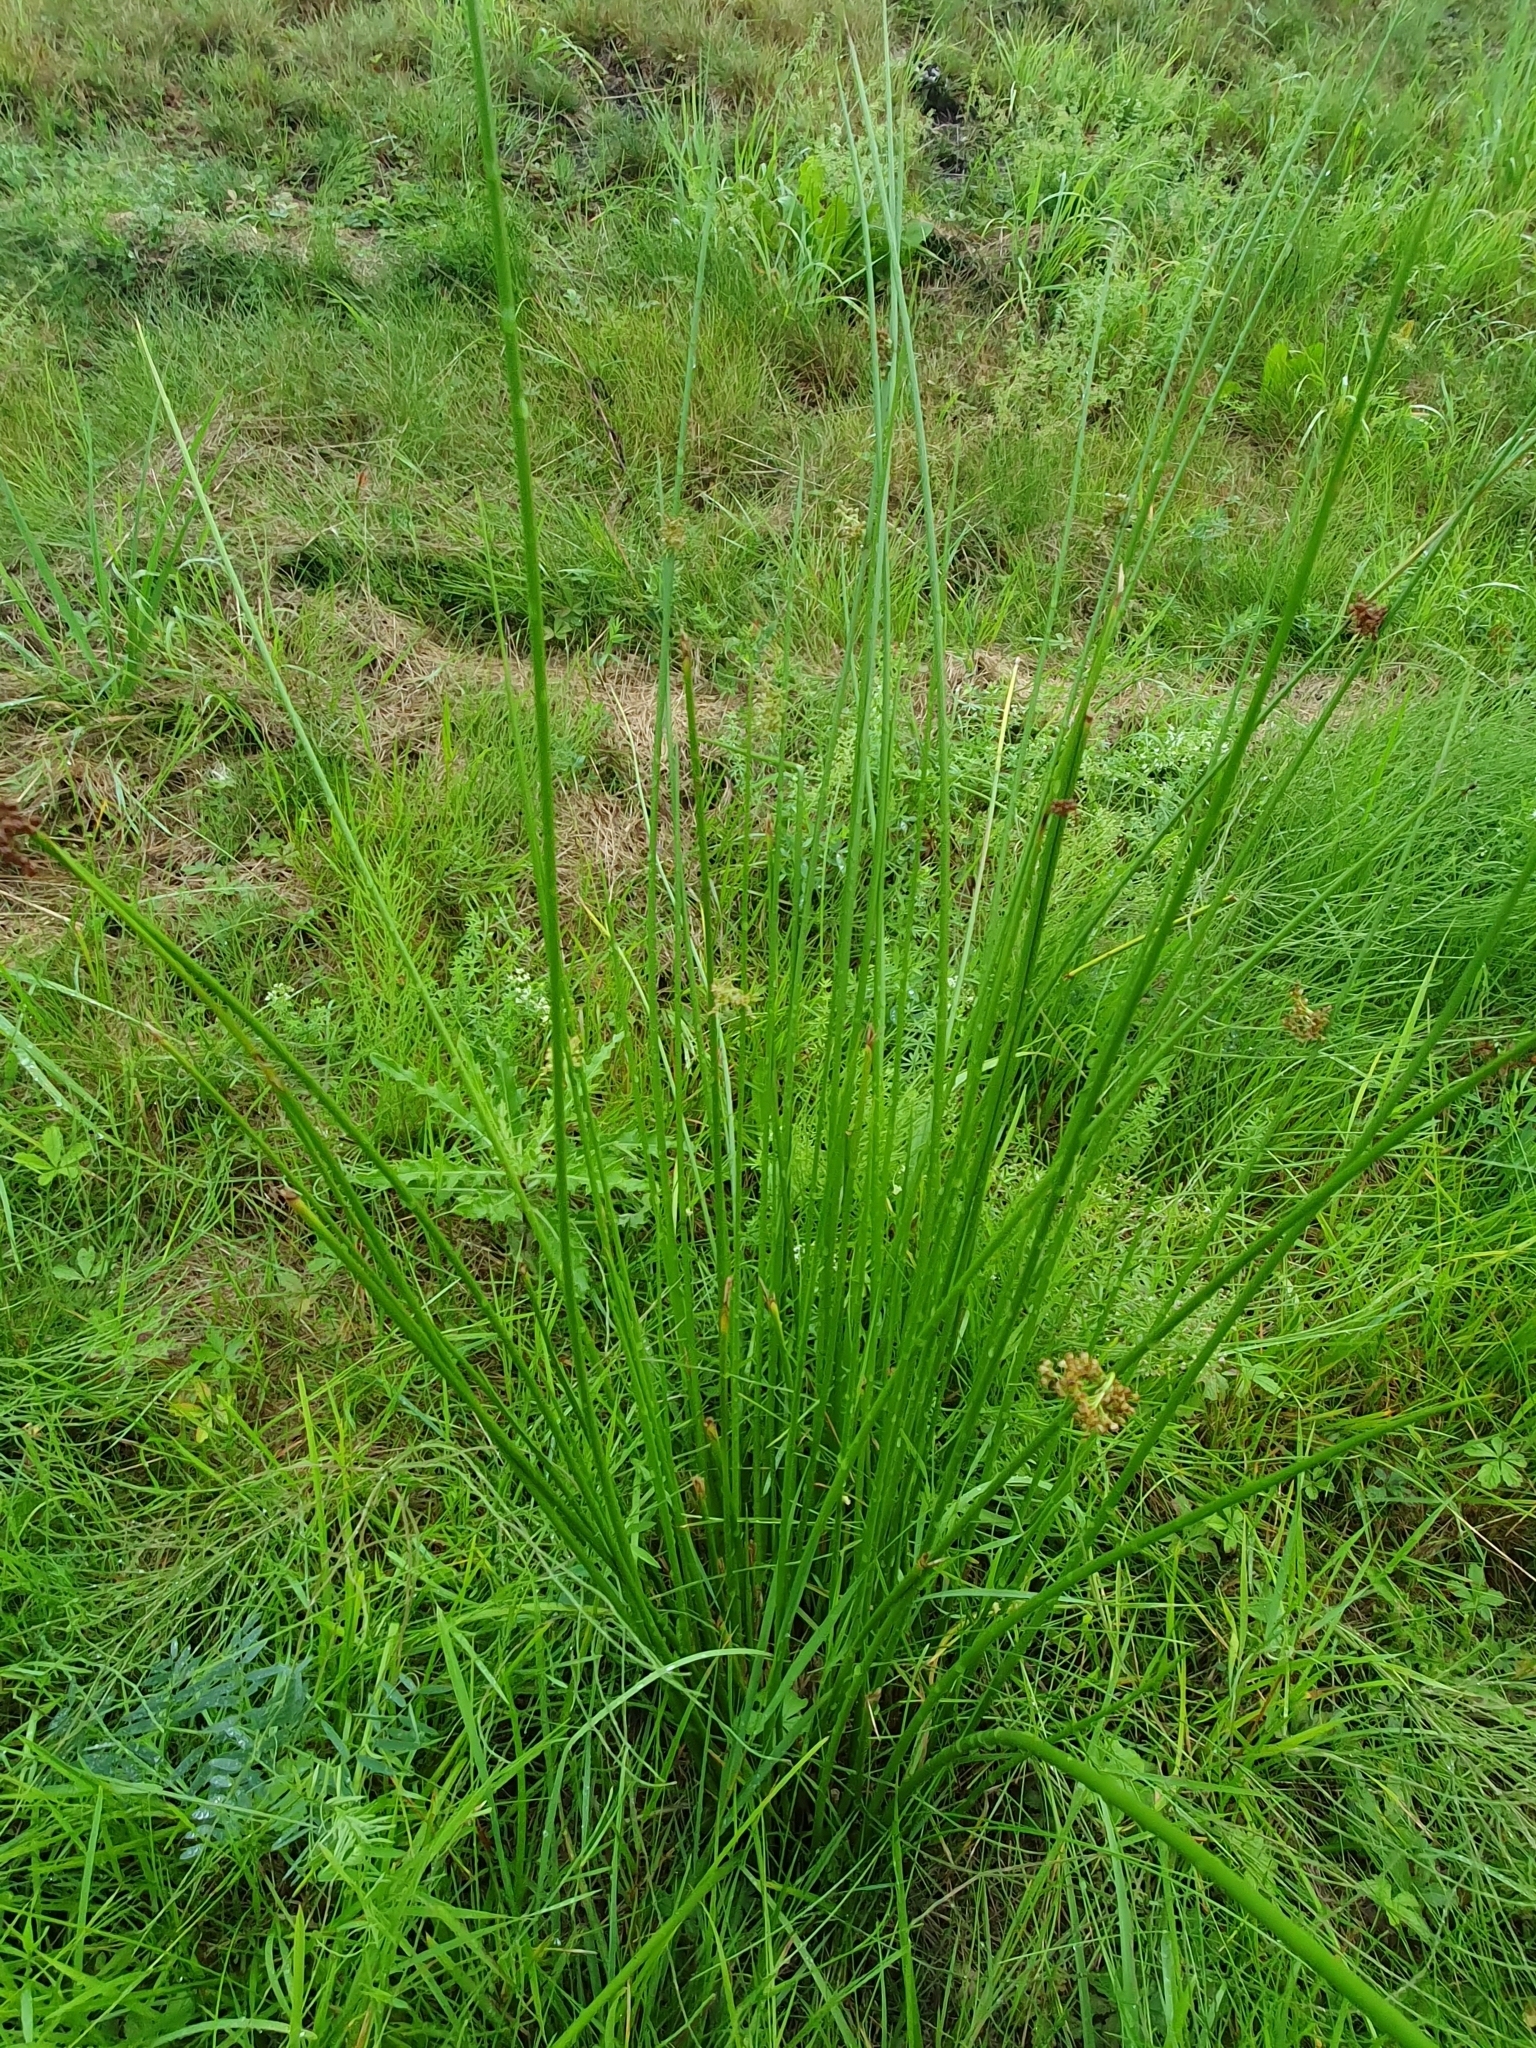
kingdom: Plantae
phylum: Tracheophyta
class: Liliopsida
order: Poales
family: Juncaceae
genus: Juncus
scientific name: Juncus effusus
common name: Soft rush
